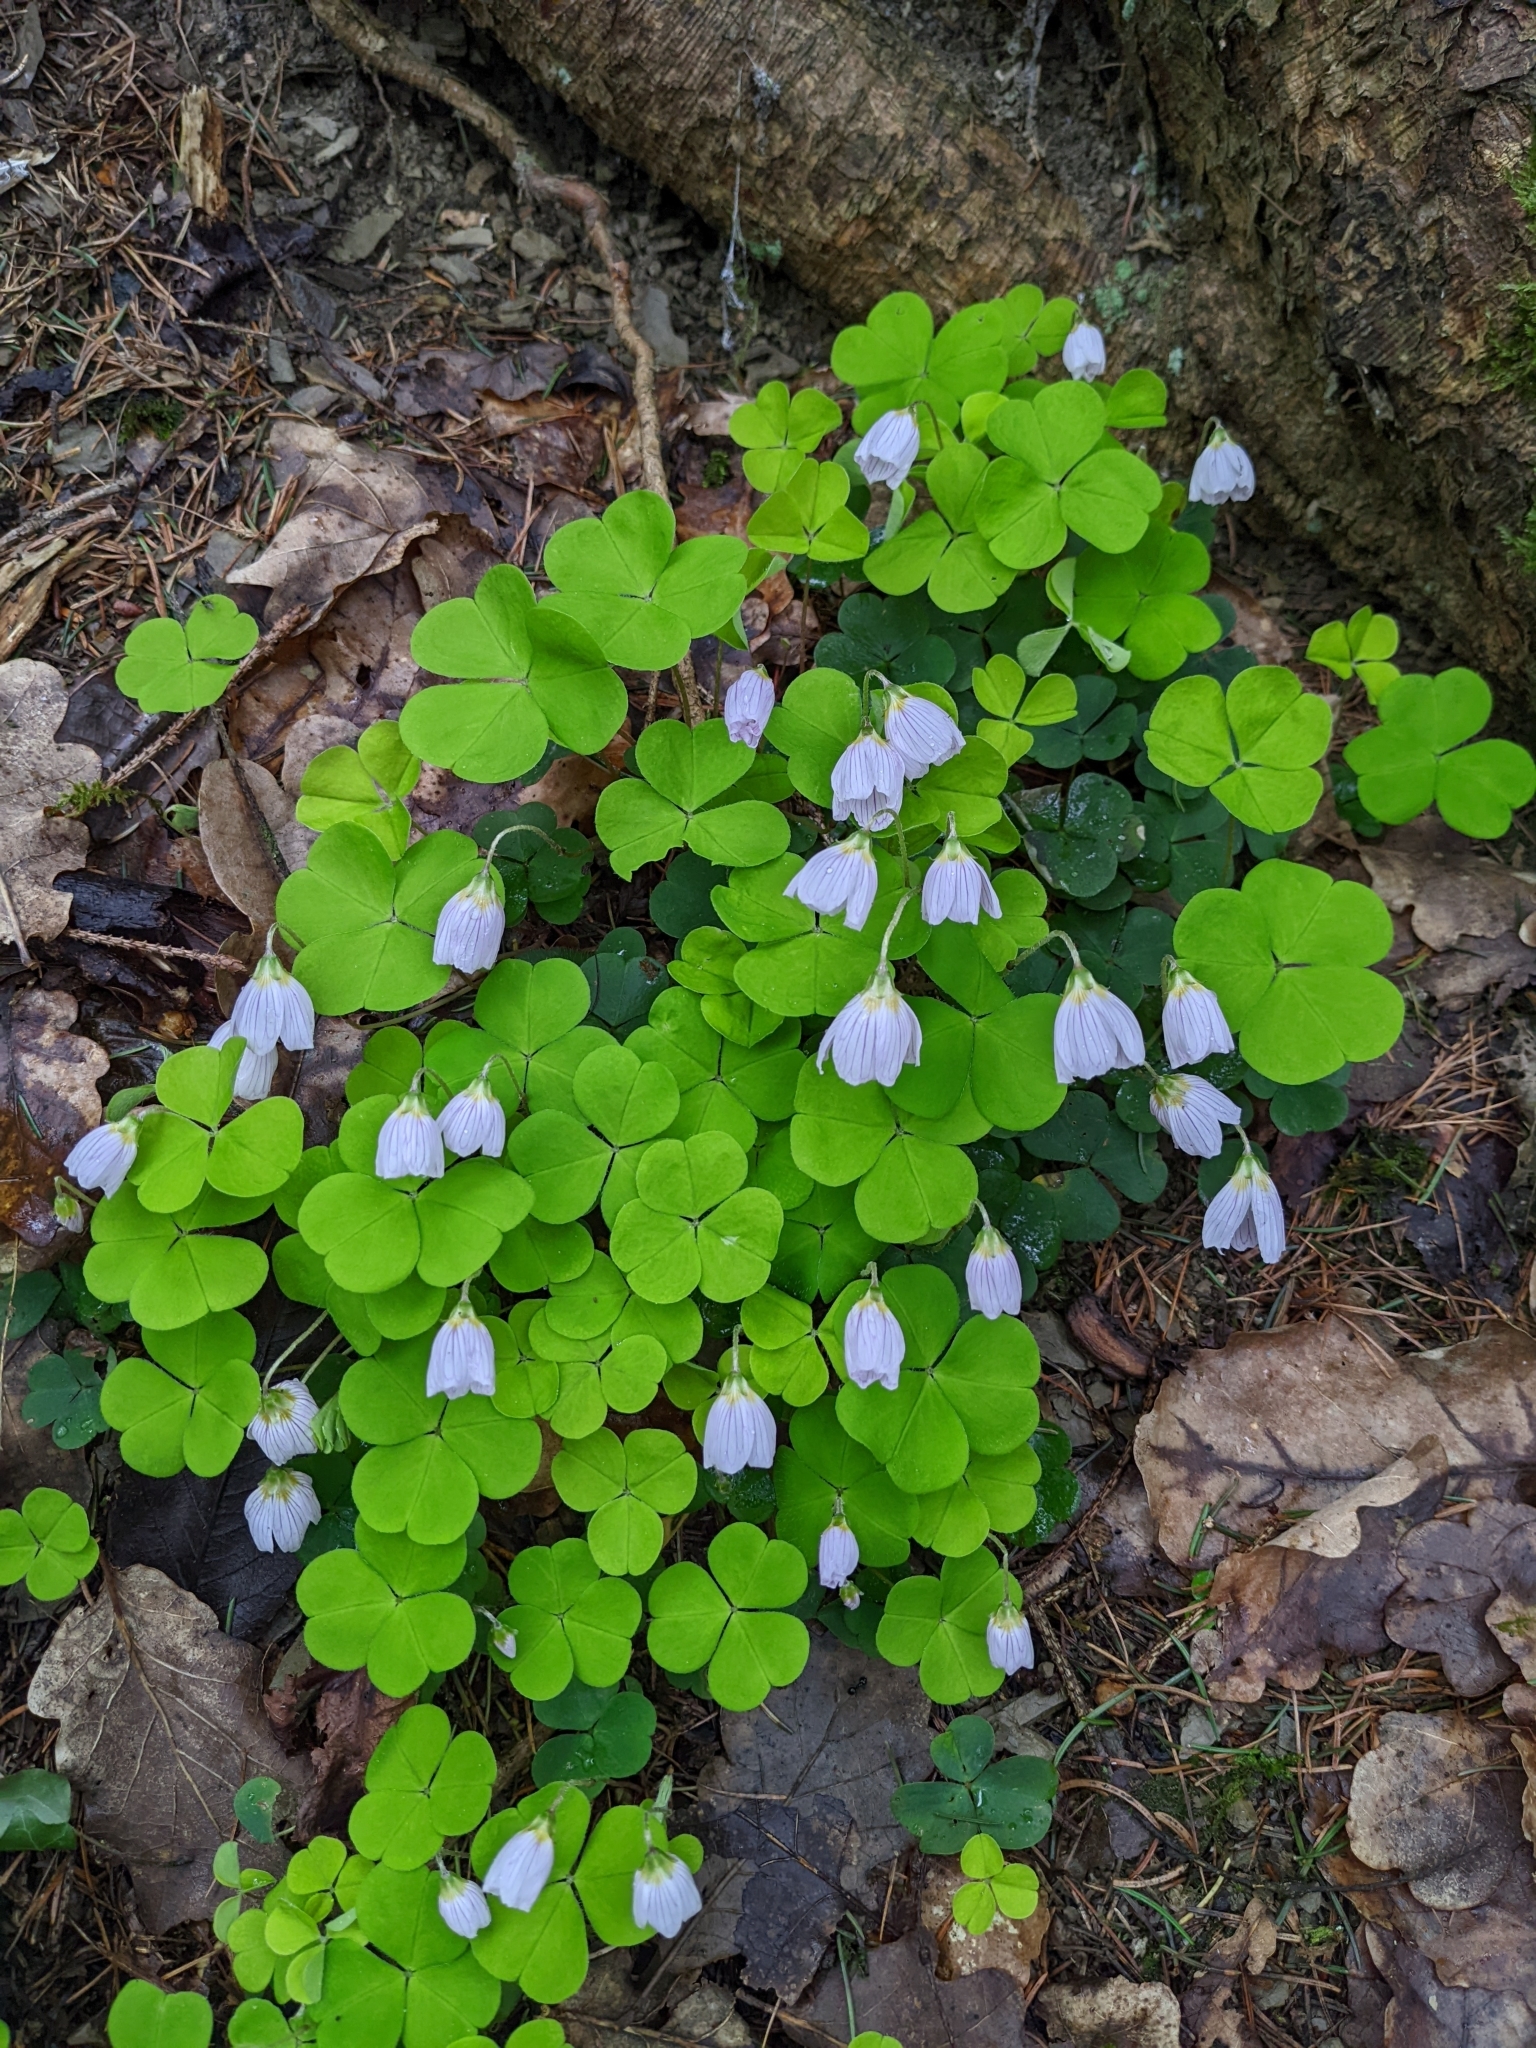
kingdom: Plantae
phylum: Tracheophyta
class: Magnoliopsida
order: Oxalidales
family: Oxalidaceae
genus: Oxalis
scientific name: Oxalis acetosella
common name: Wood-sorrel
